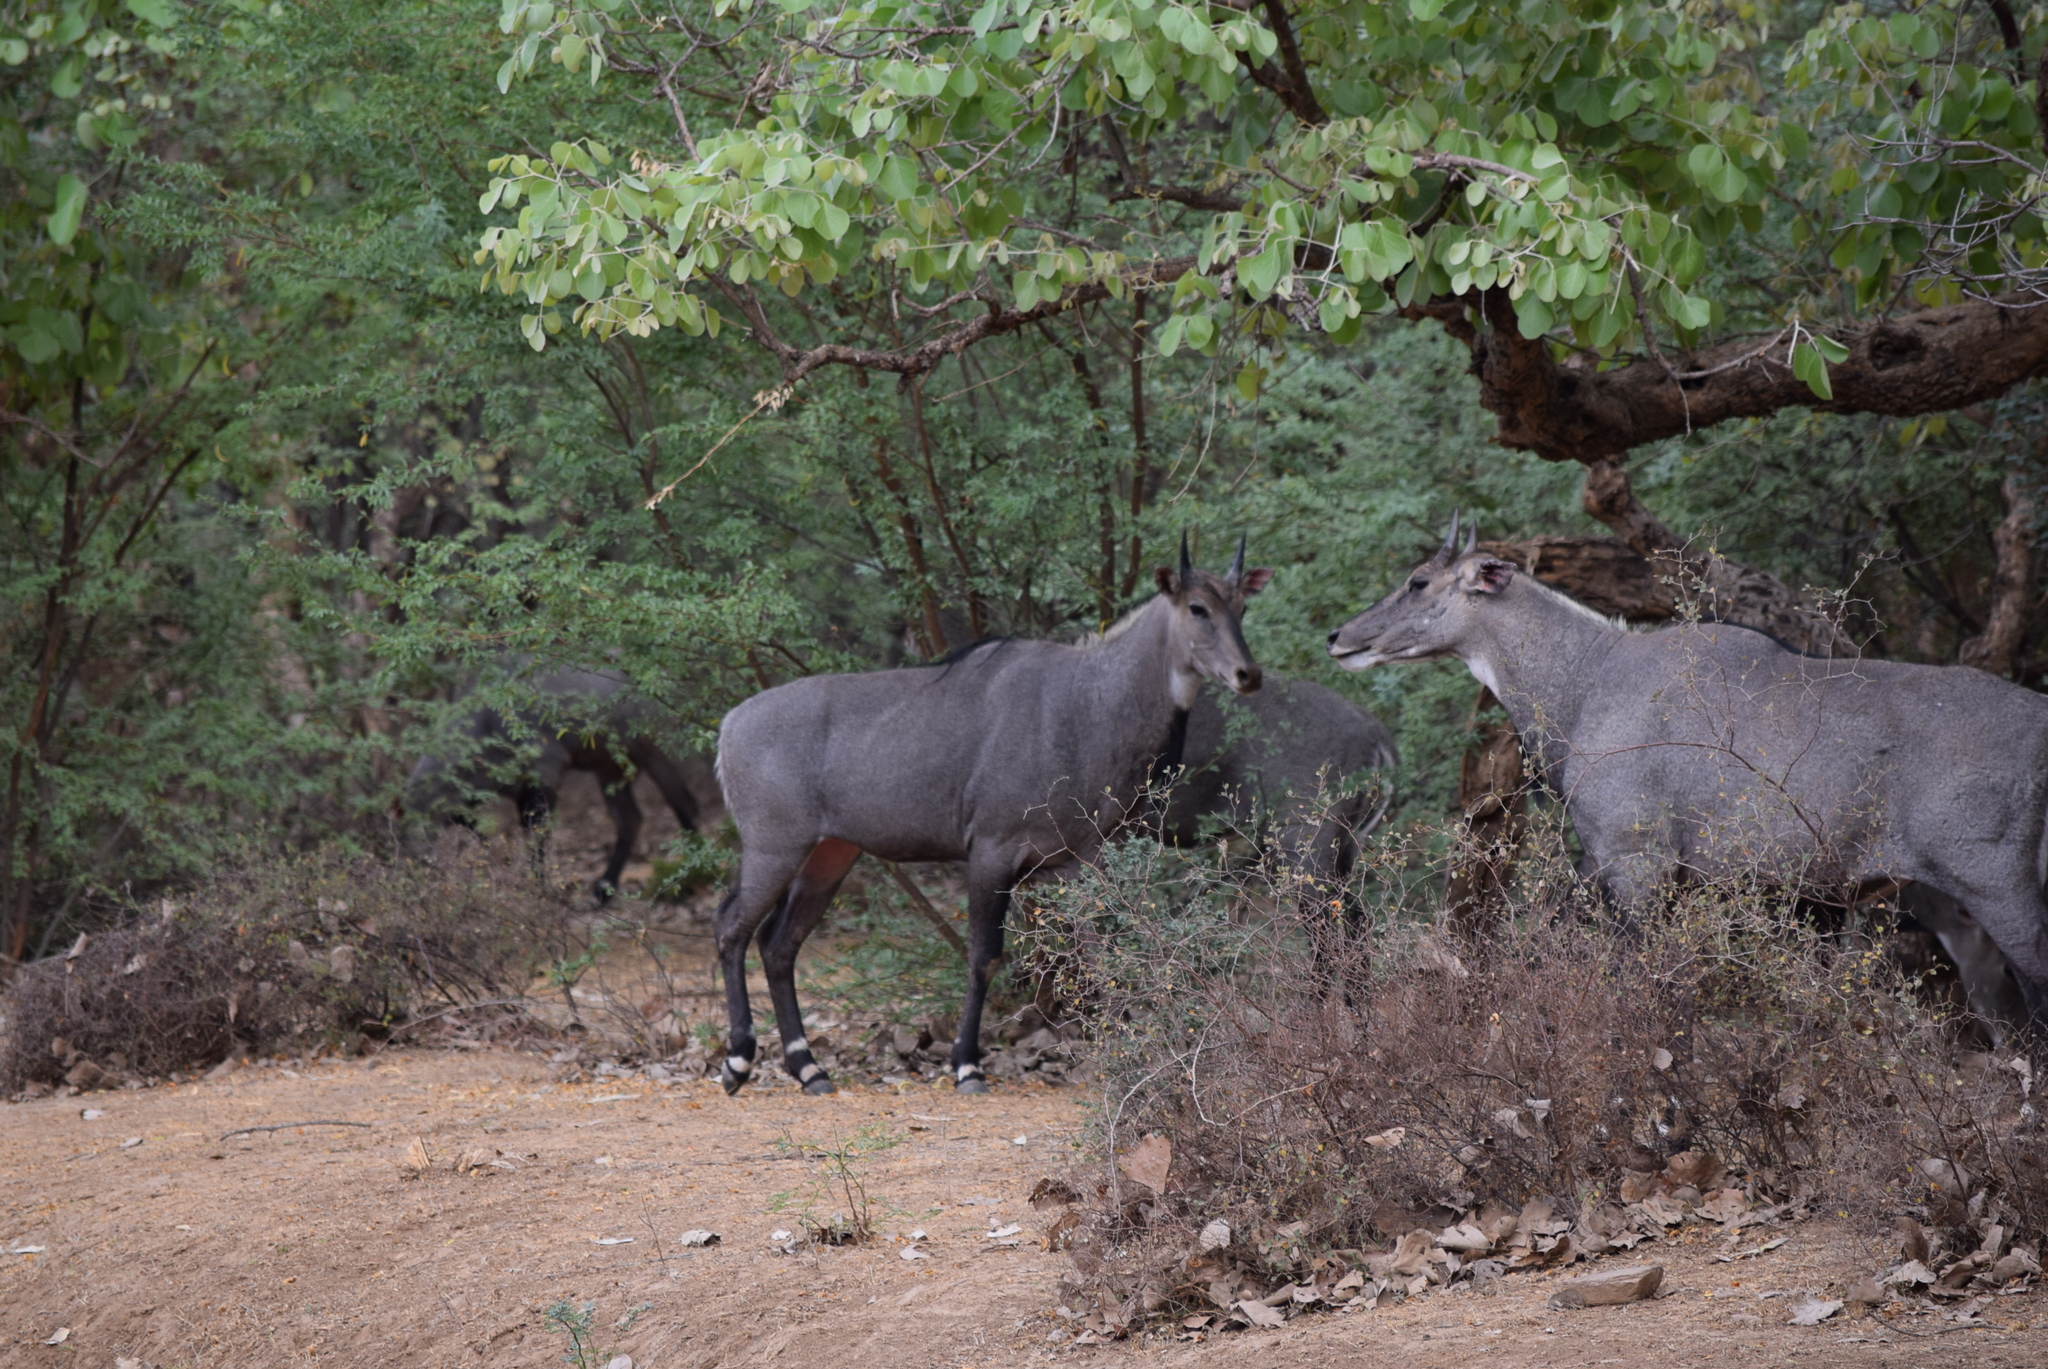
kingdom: Animalia
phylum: Chordata
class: Mammalia
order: Artiodactyla
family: Bovidae
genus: Boselaphus
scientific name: Boselaphus tragocamelus
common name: Nilgai
